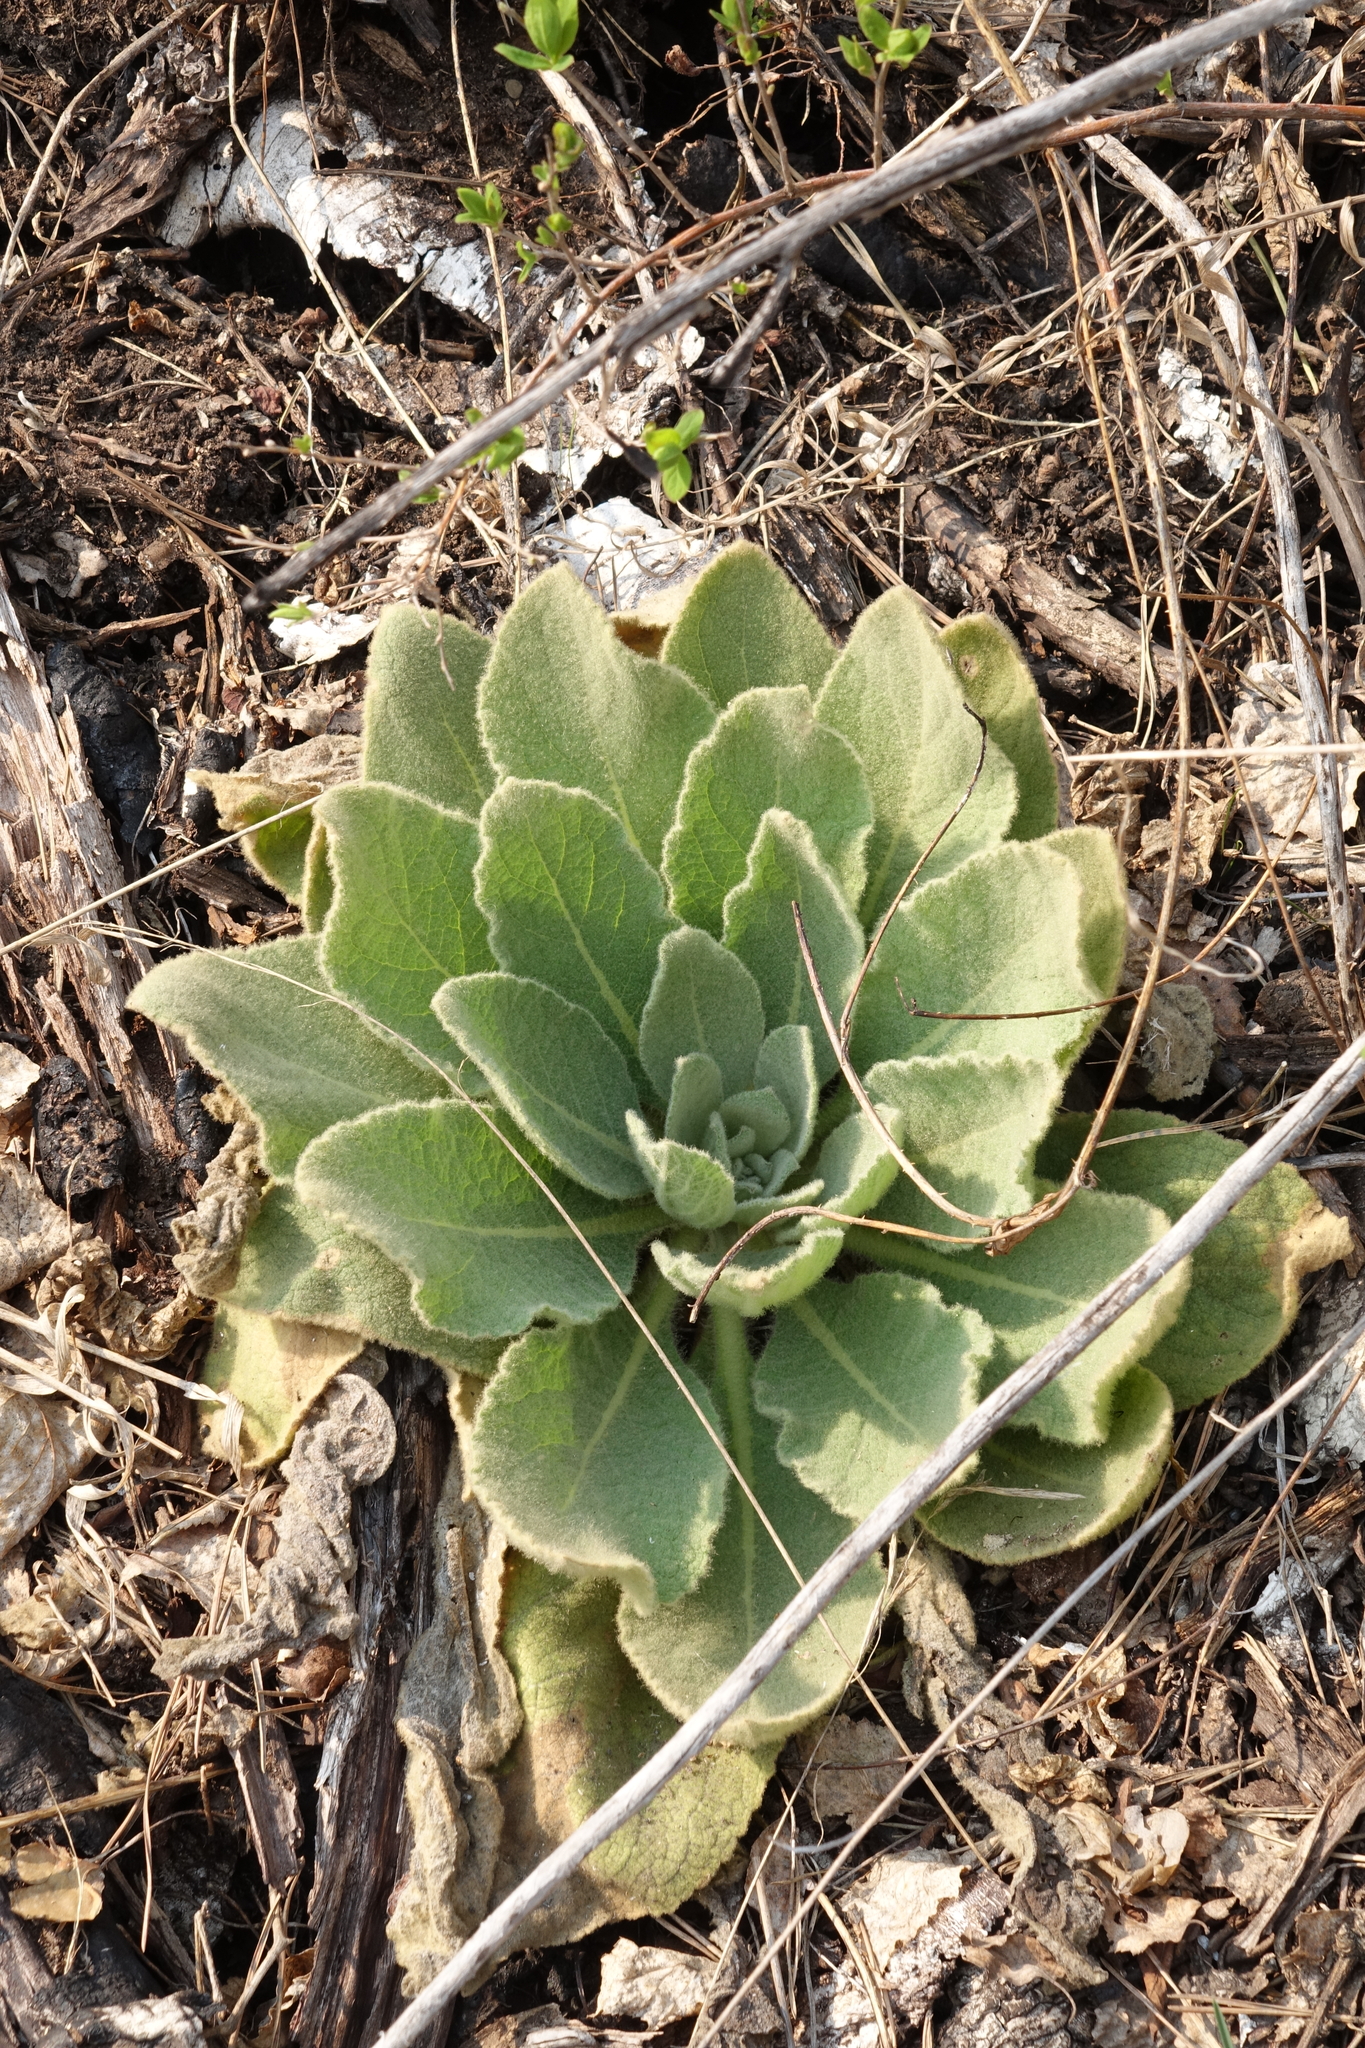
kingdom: Plantae
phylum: Tracheophyta
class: Magnoliopsida
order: Lamiales
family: Scrophulariaceae
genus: Verbascum
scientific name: Verbascum thapsus
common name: Common mullein
